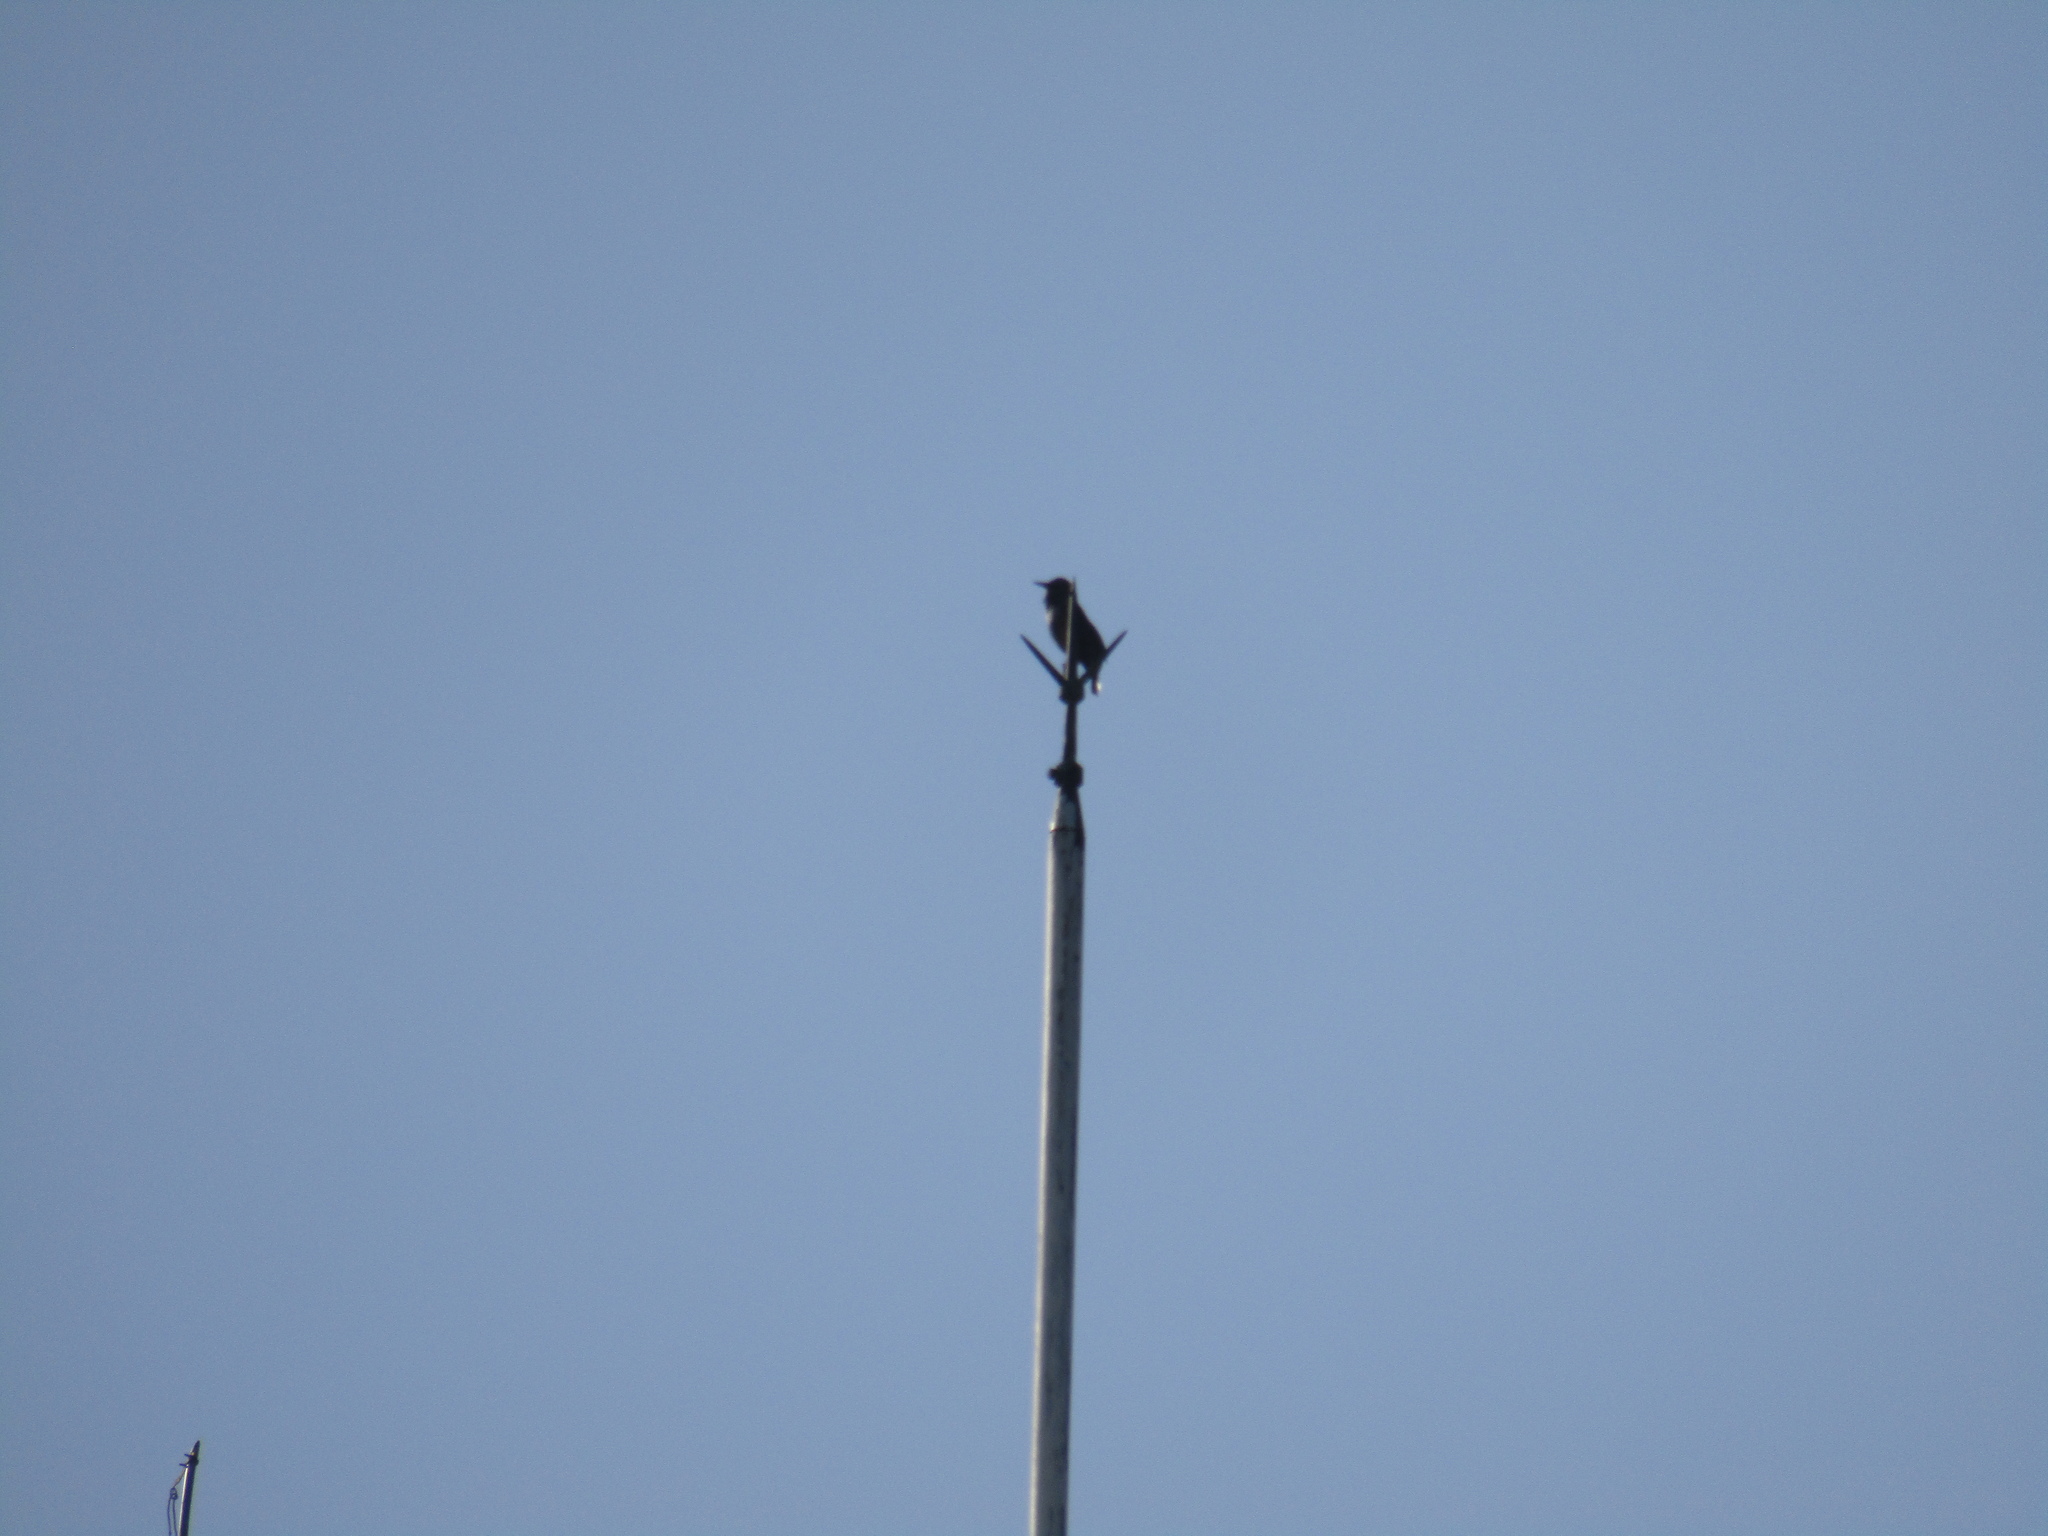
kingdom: Animalia
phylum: Chordata
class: Aves
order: Passeriformes
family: Sturnidae
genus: Sturnus
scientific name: Sturnus vulgaris
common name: Common starling
